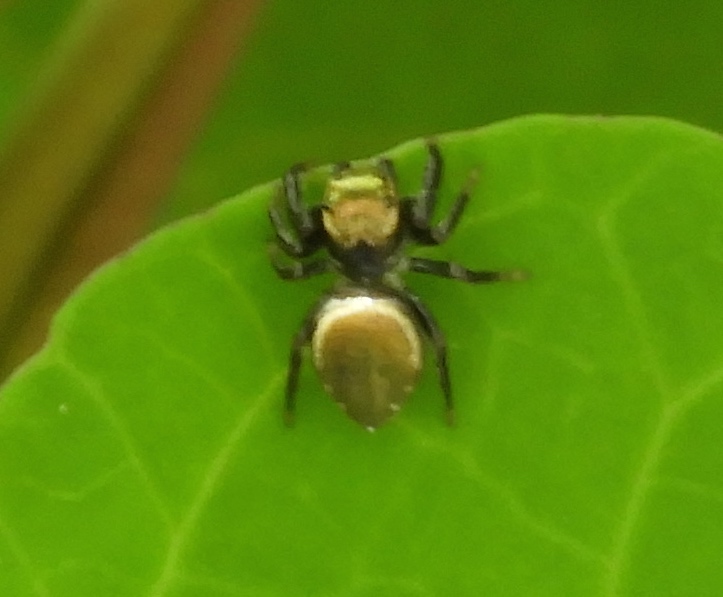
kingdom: Animalia
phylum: Arthropoda
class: Arachnida
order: Araneae
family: Salticidae
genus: Messua
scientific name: Messua
